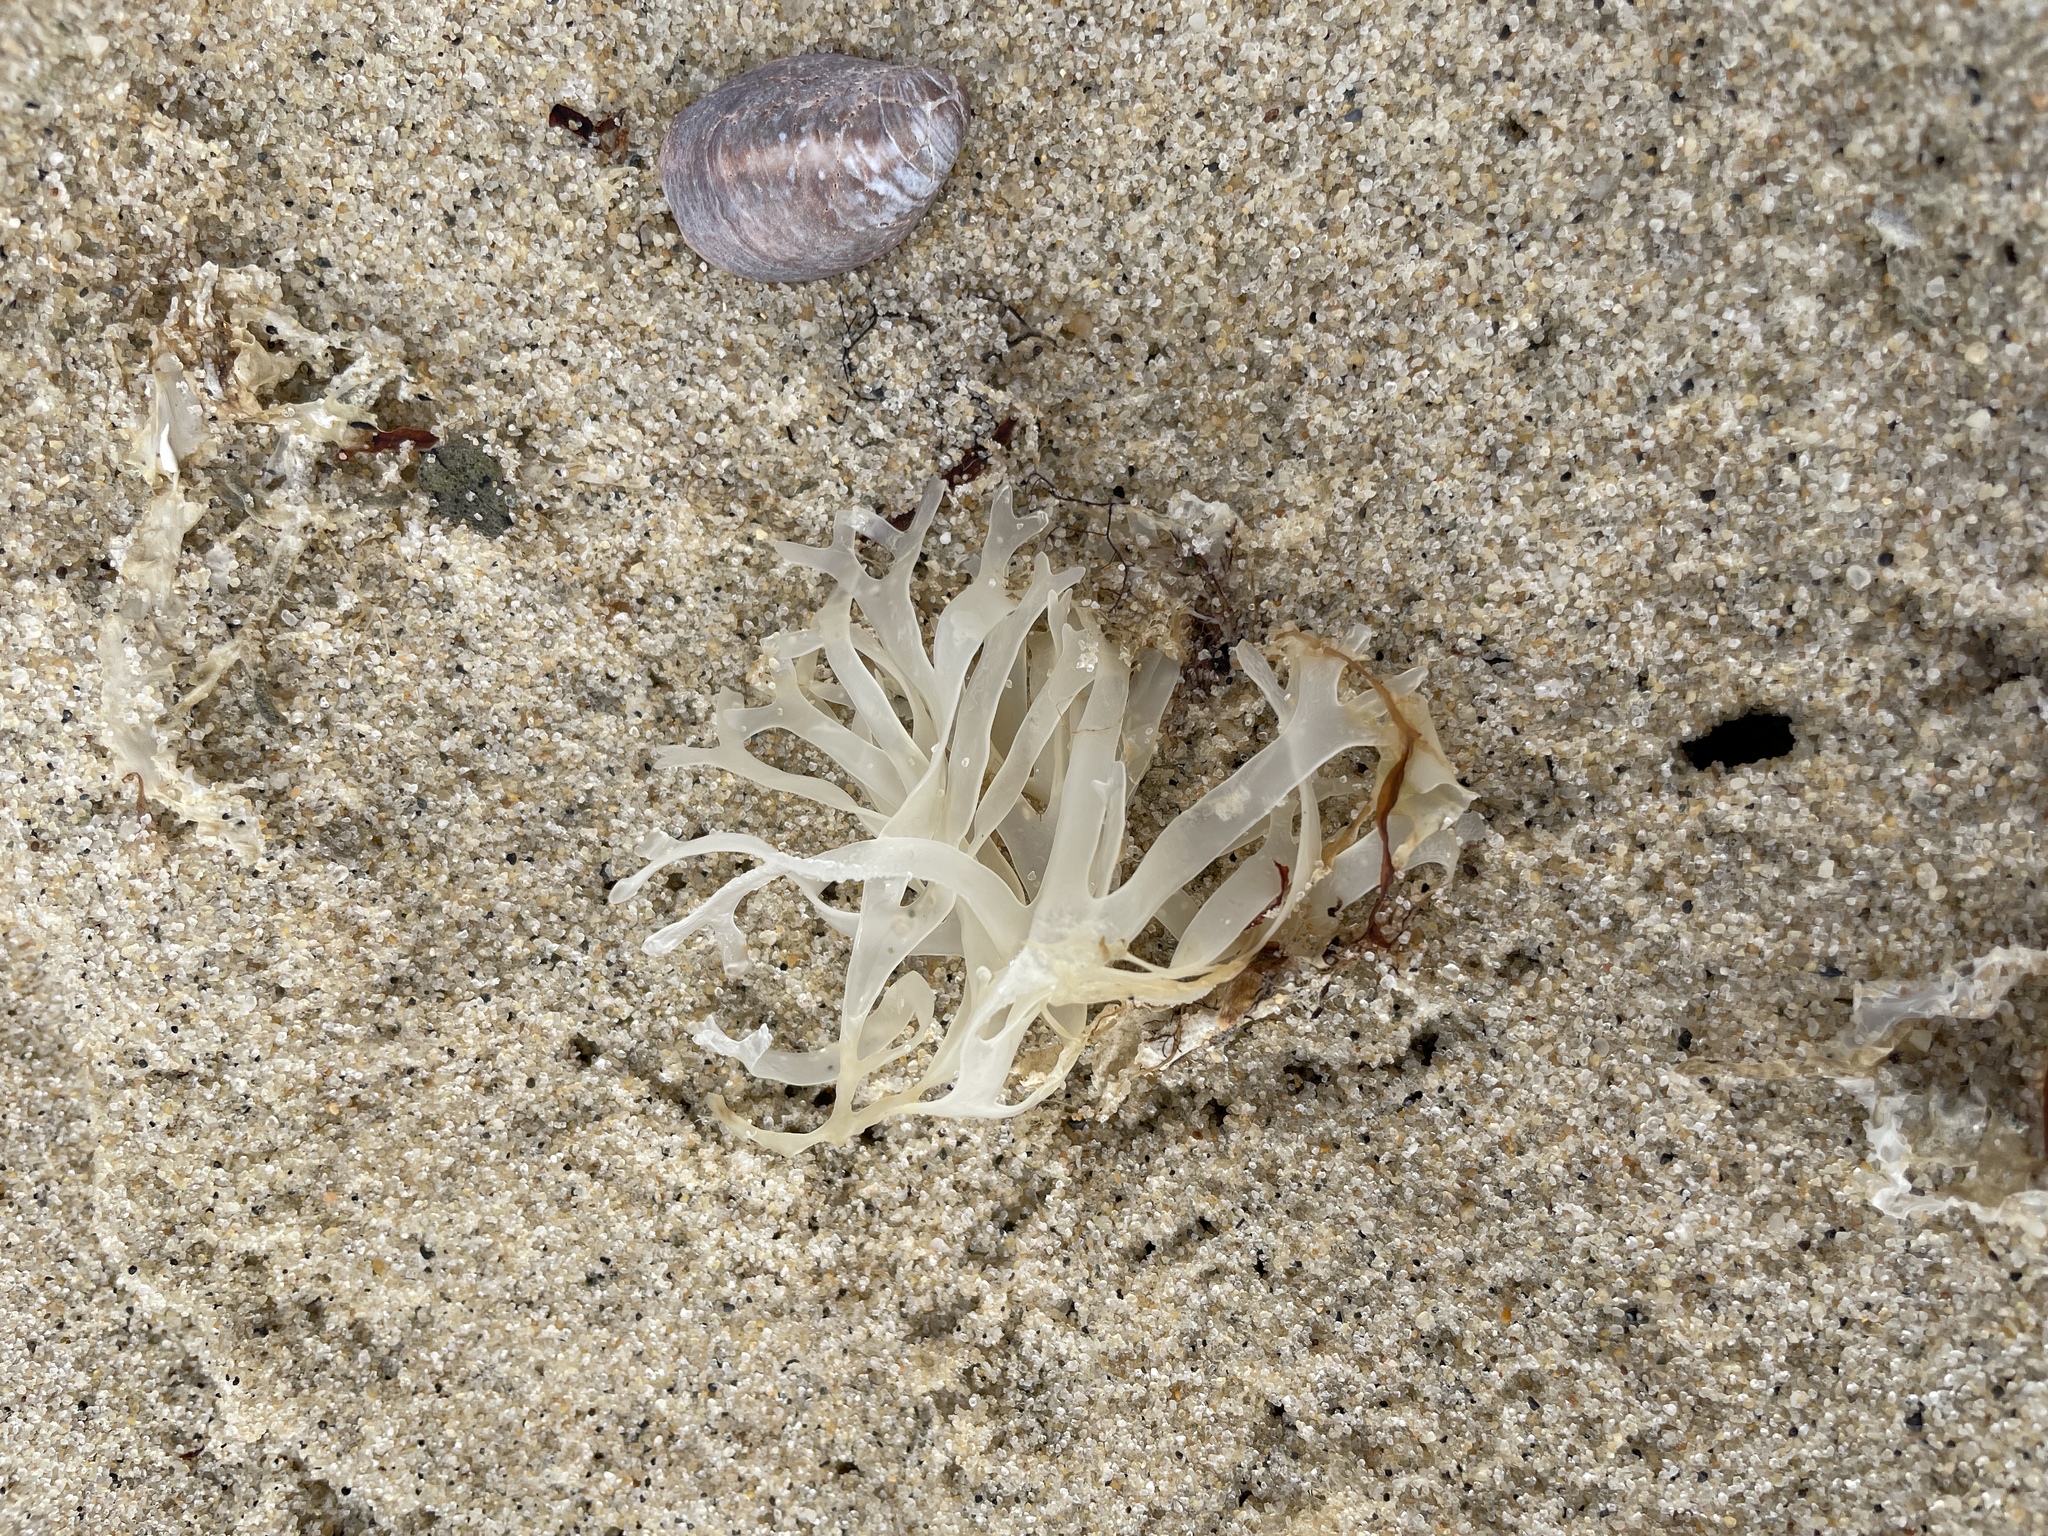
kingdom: Plantae
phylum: Rhodophyta
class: Florideophyceae
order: Gigartinales
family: Gigartinaceae
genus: Chondrus
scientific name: Chondrus crispus
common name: Carrageen
